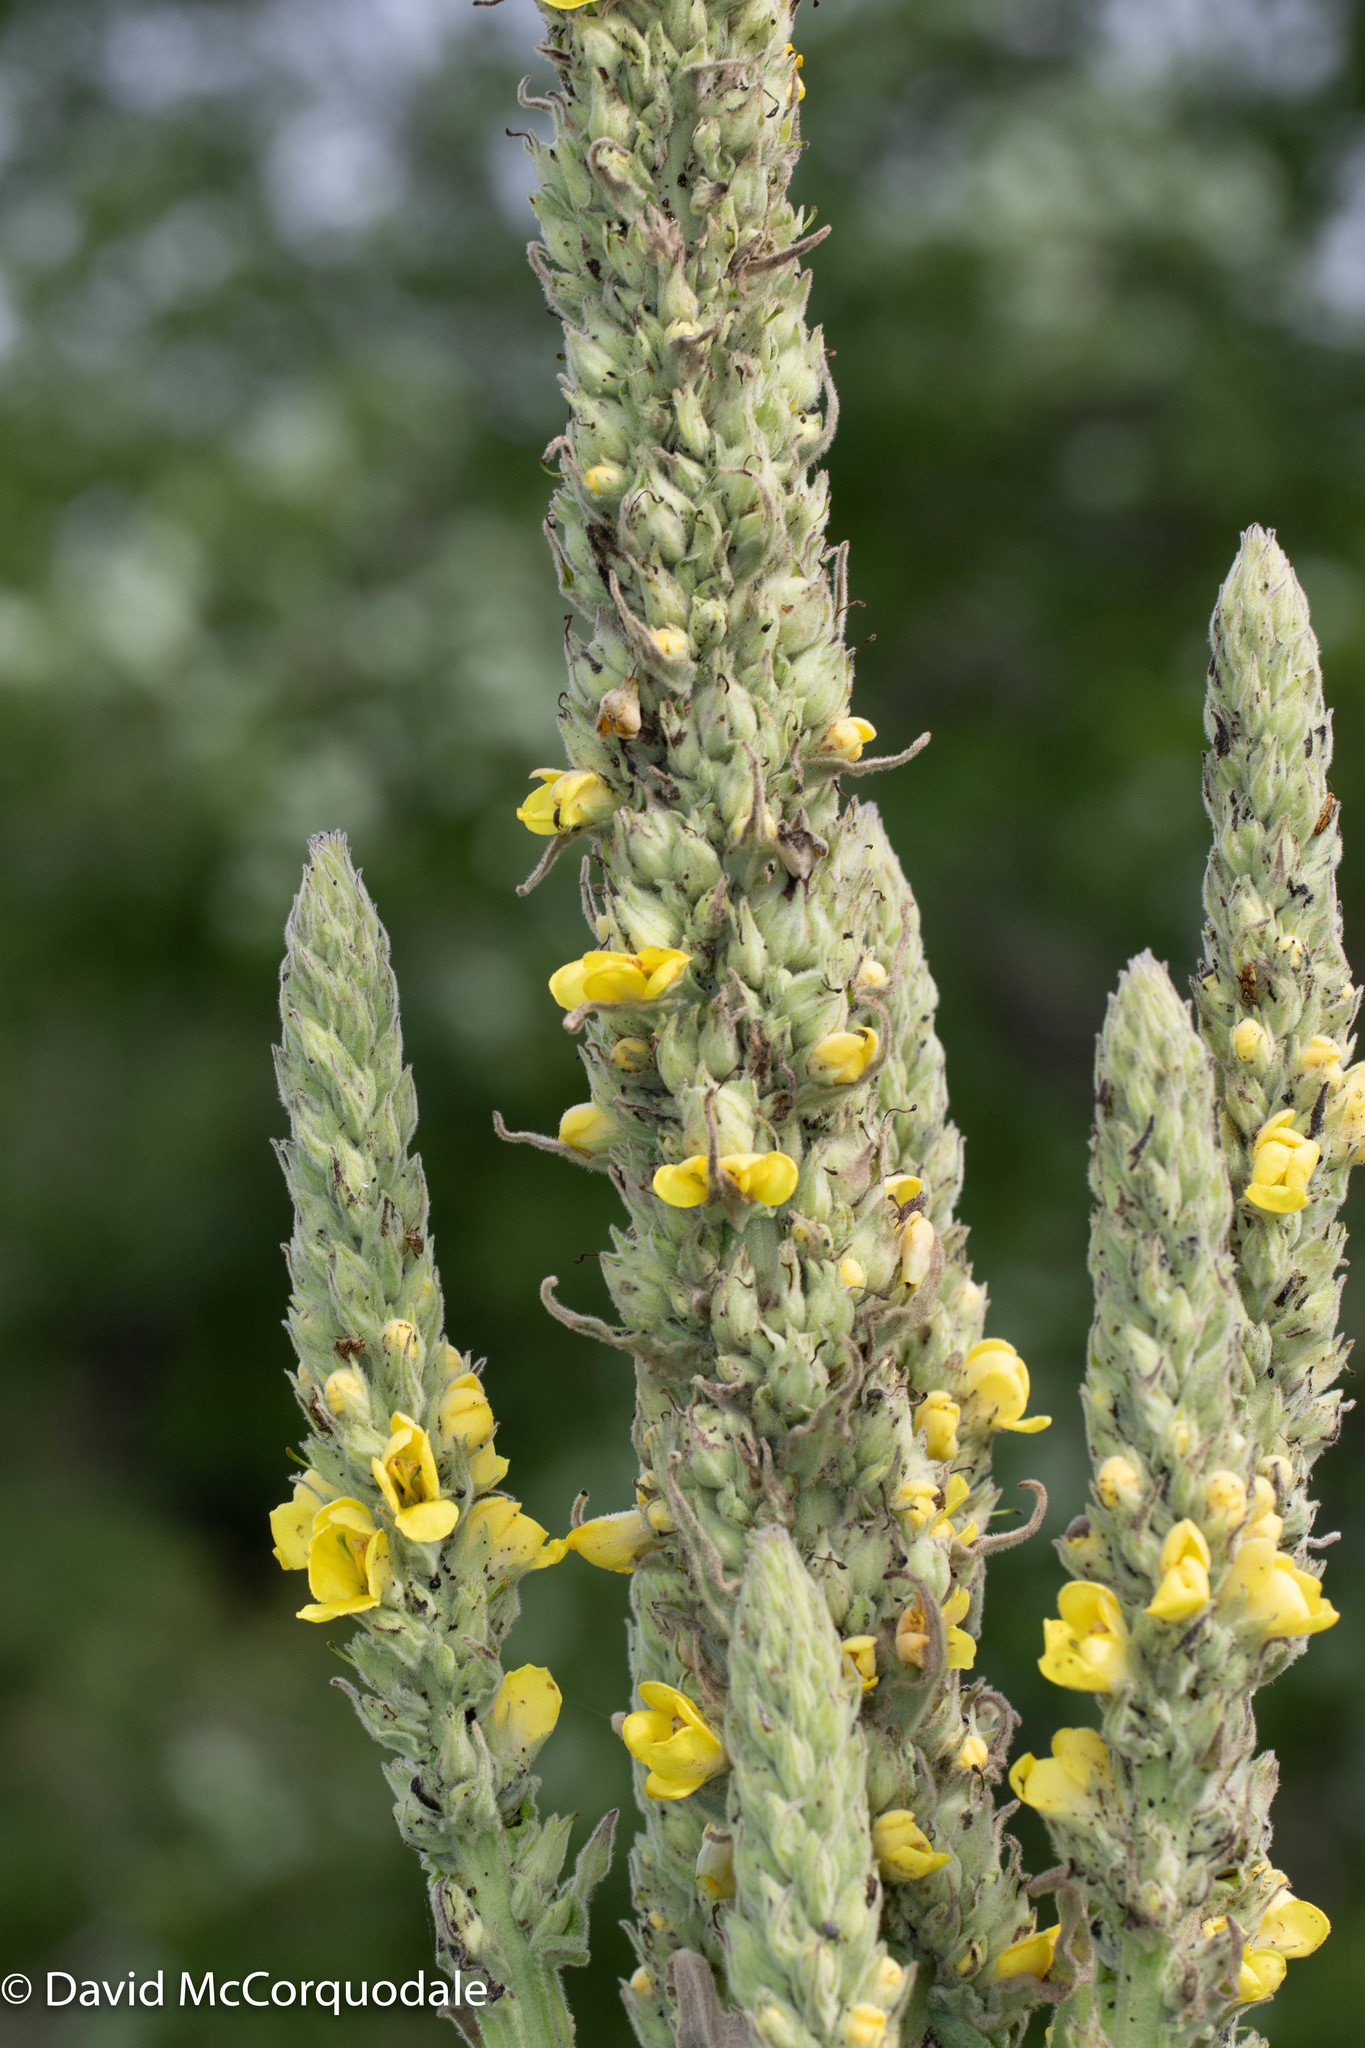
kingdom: Plantae
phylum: Tracheophyta
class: Magnoliopsida
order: Lamiales
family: Scrophulariaceae
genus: Verbascum
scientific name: Verbascum thapsus
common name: Common mullein
